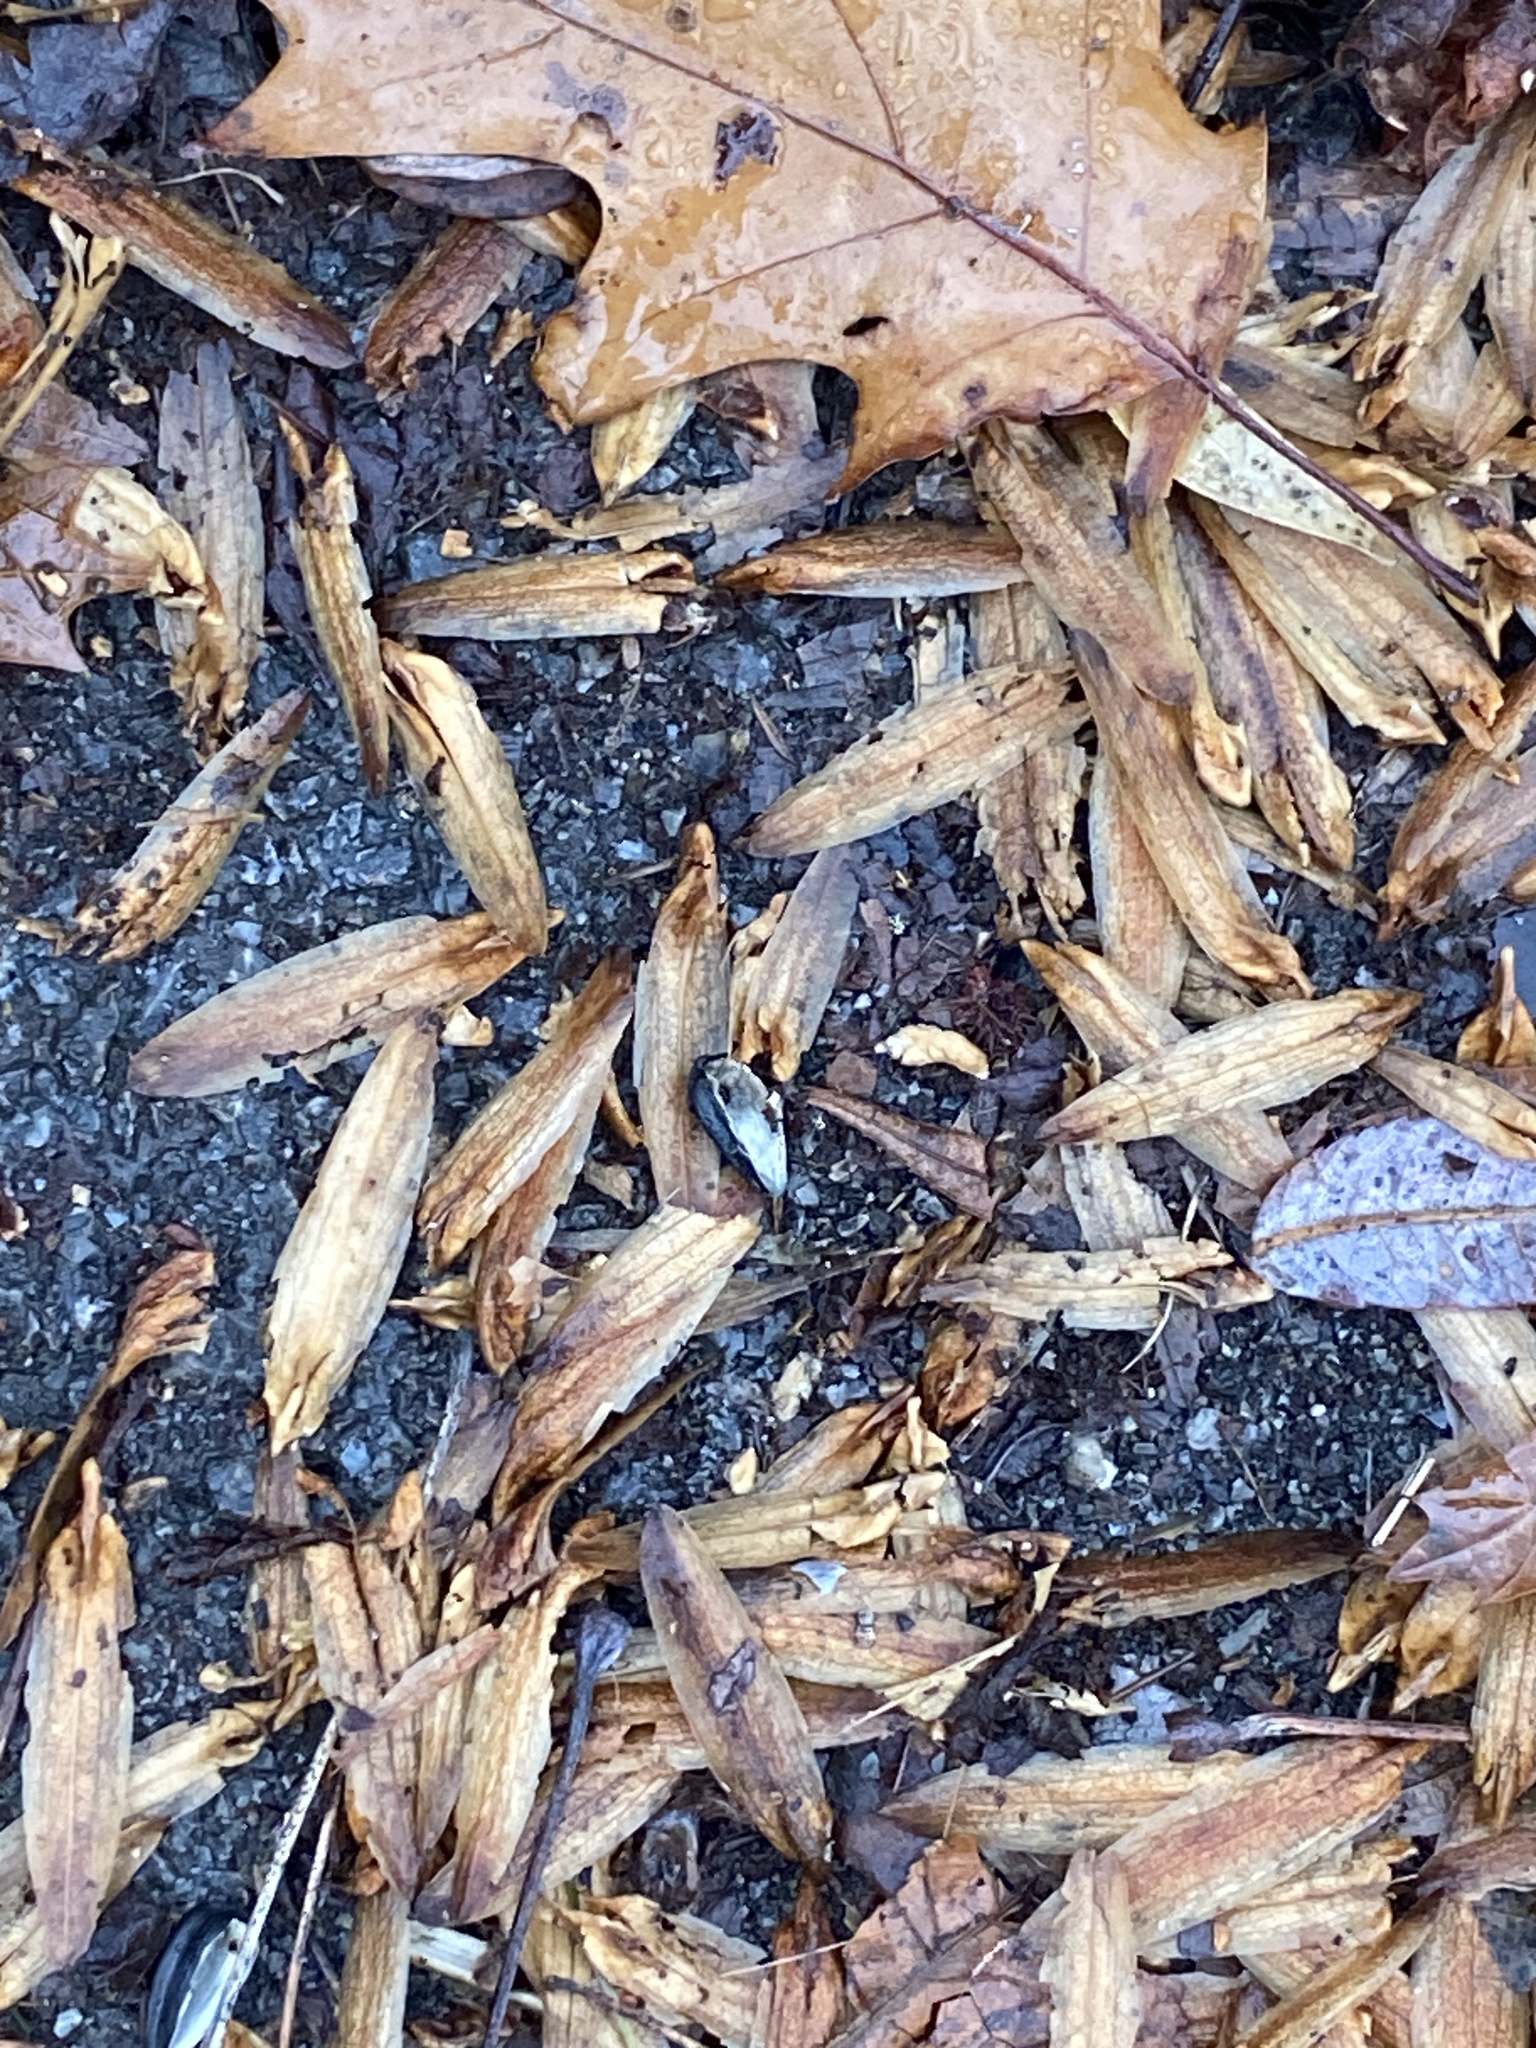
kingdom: Plantae
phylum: Tracheophyta
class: Magnoliopsida
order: Magnoliales
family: Magnoliaceae
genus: Liriodendron
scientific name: Liriodendron tulipifera
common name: Tulip tree
